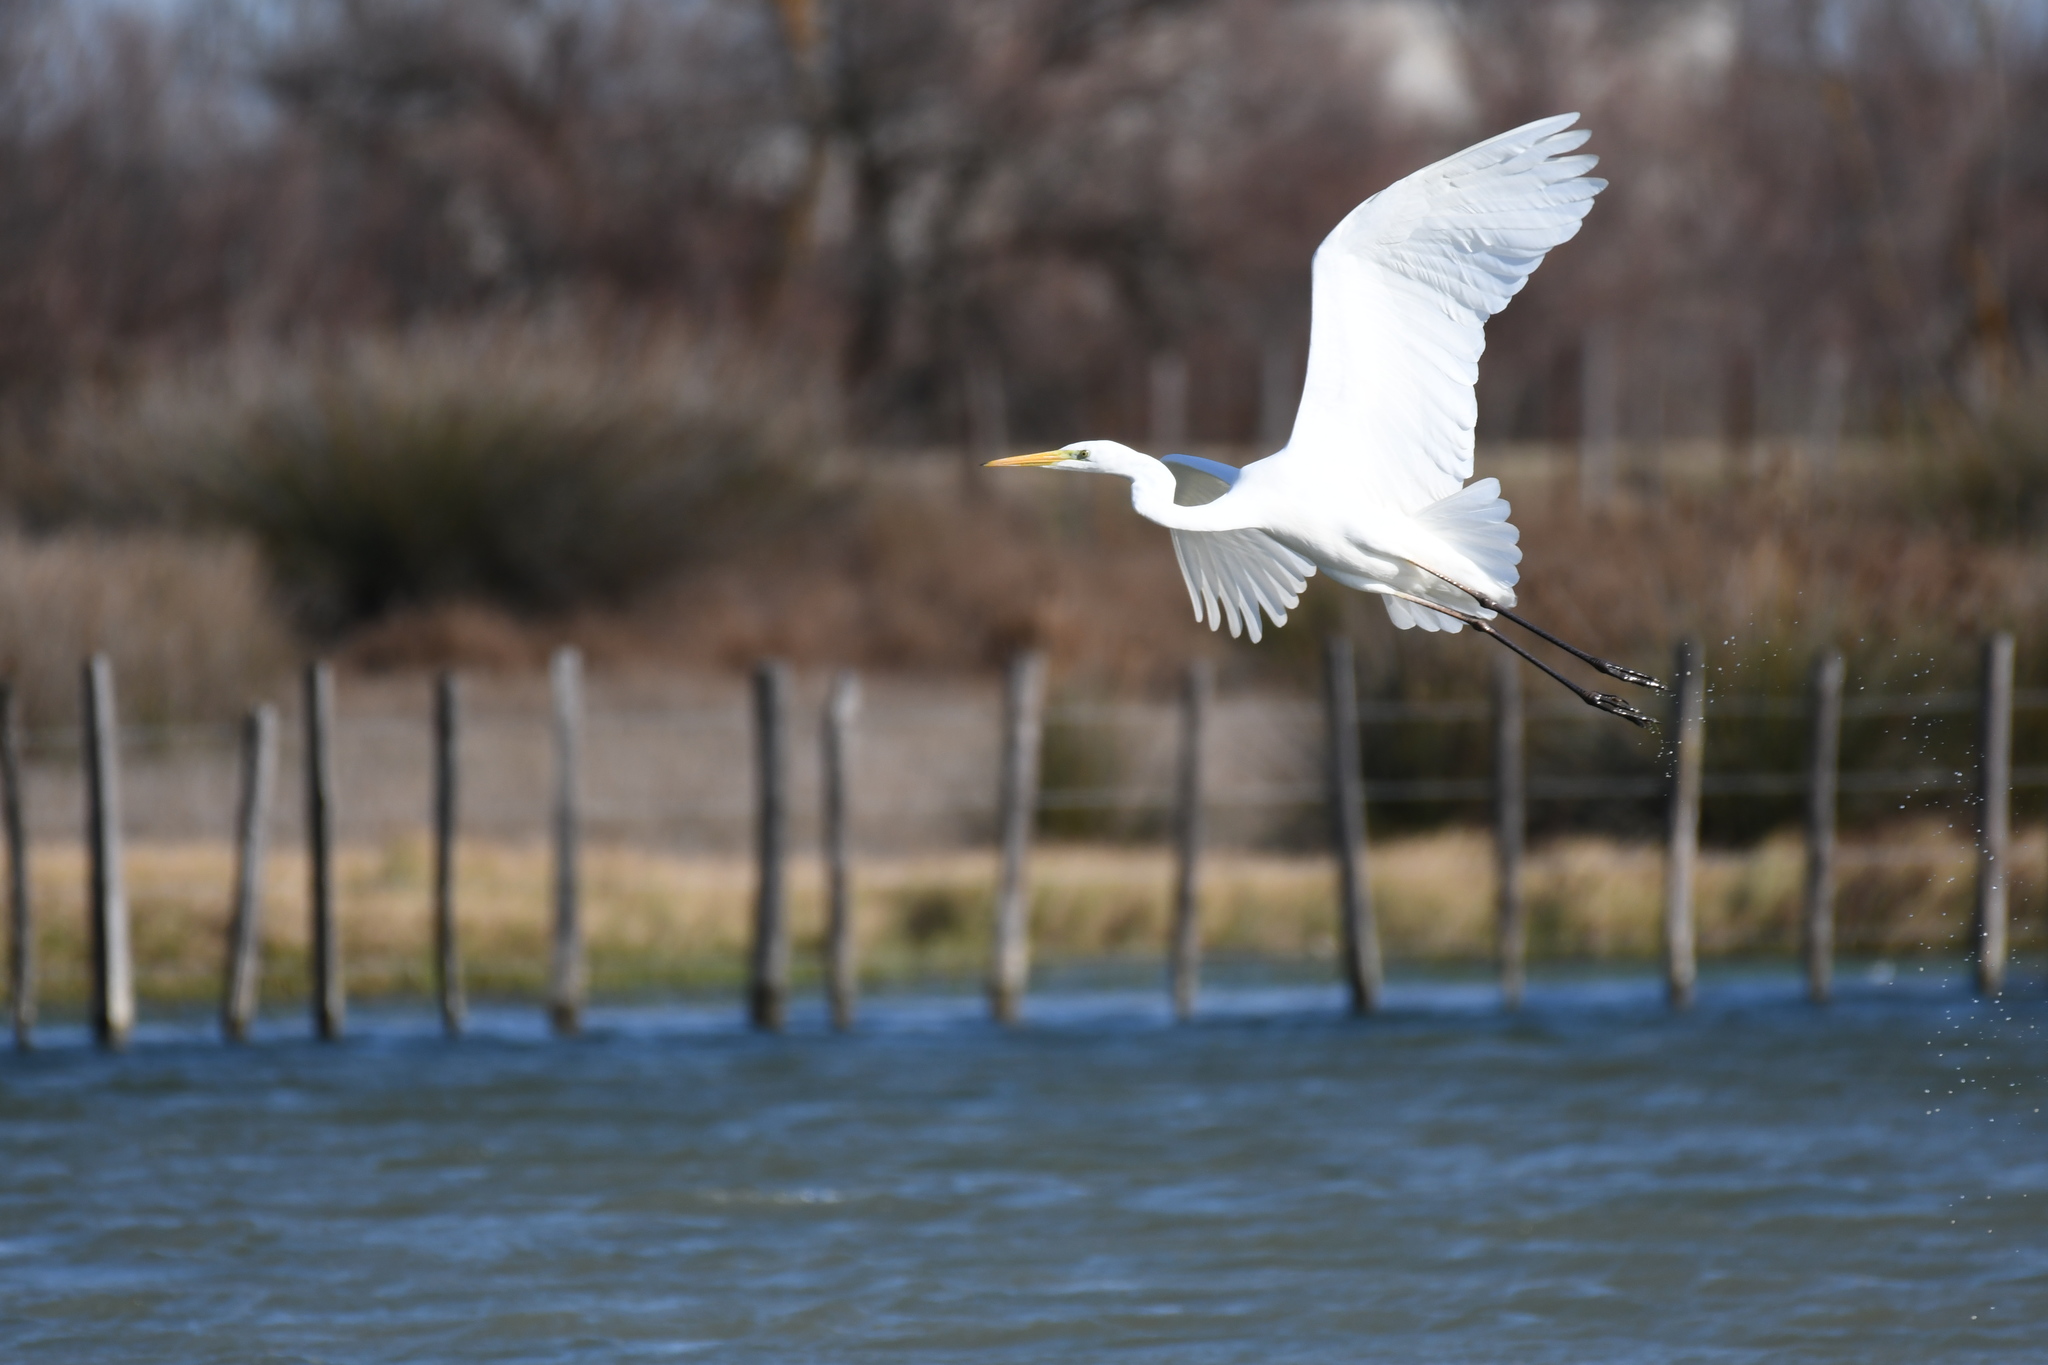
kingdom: Animalia
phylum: Chordata
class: Aves
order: Pelecaniformes
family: Ardeidae
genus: Ardea
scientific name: Ardea alba
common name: Great egret
